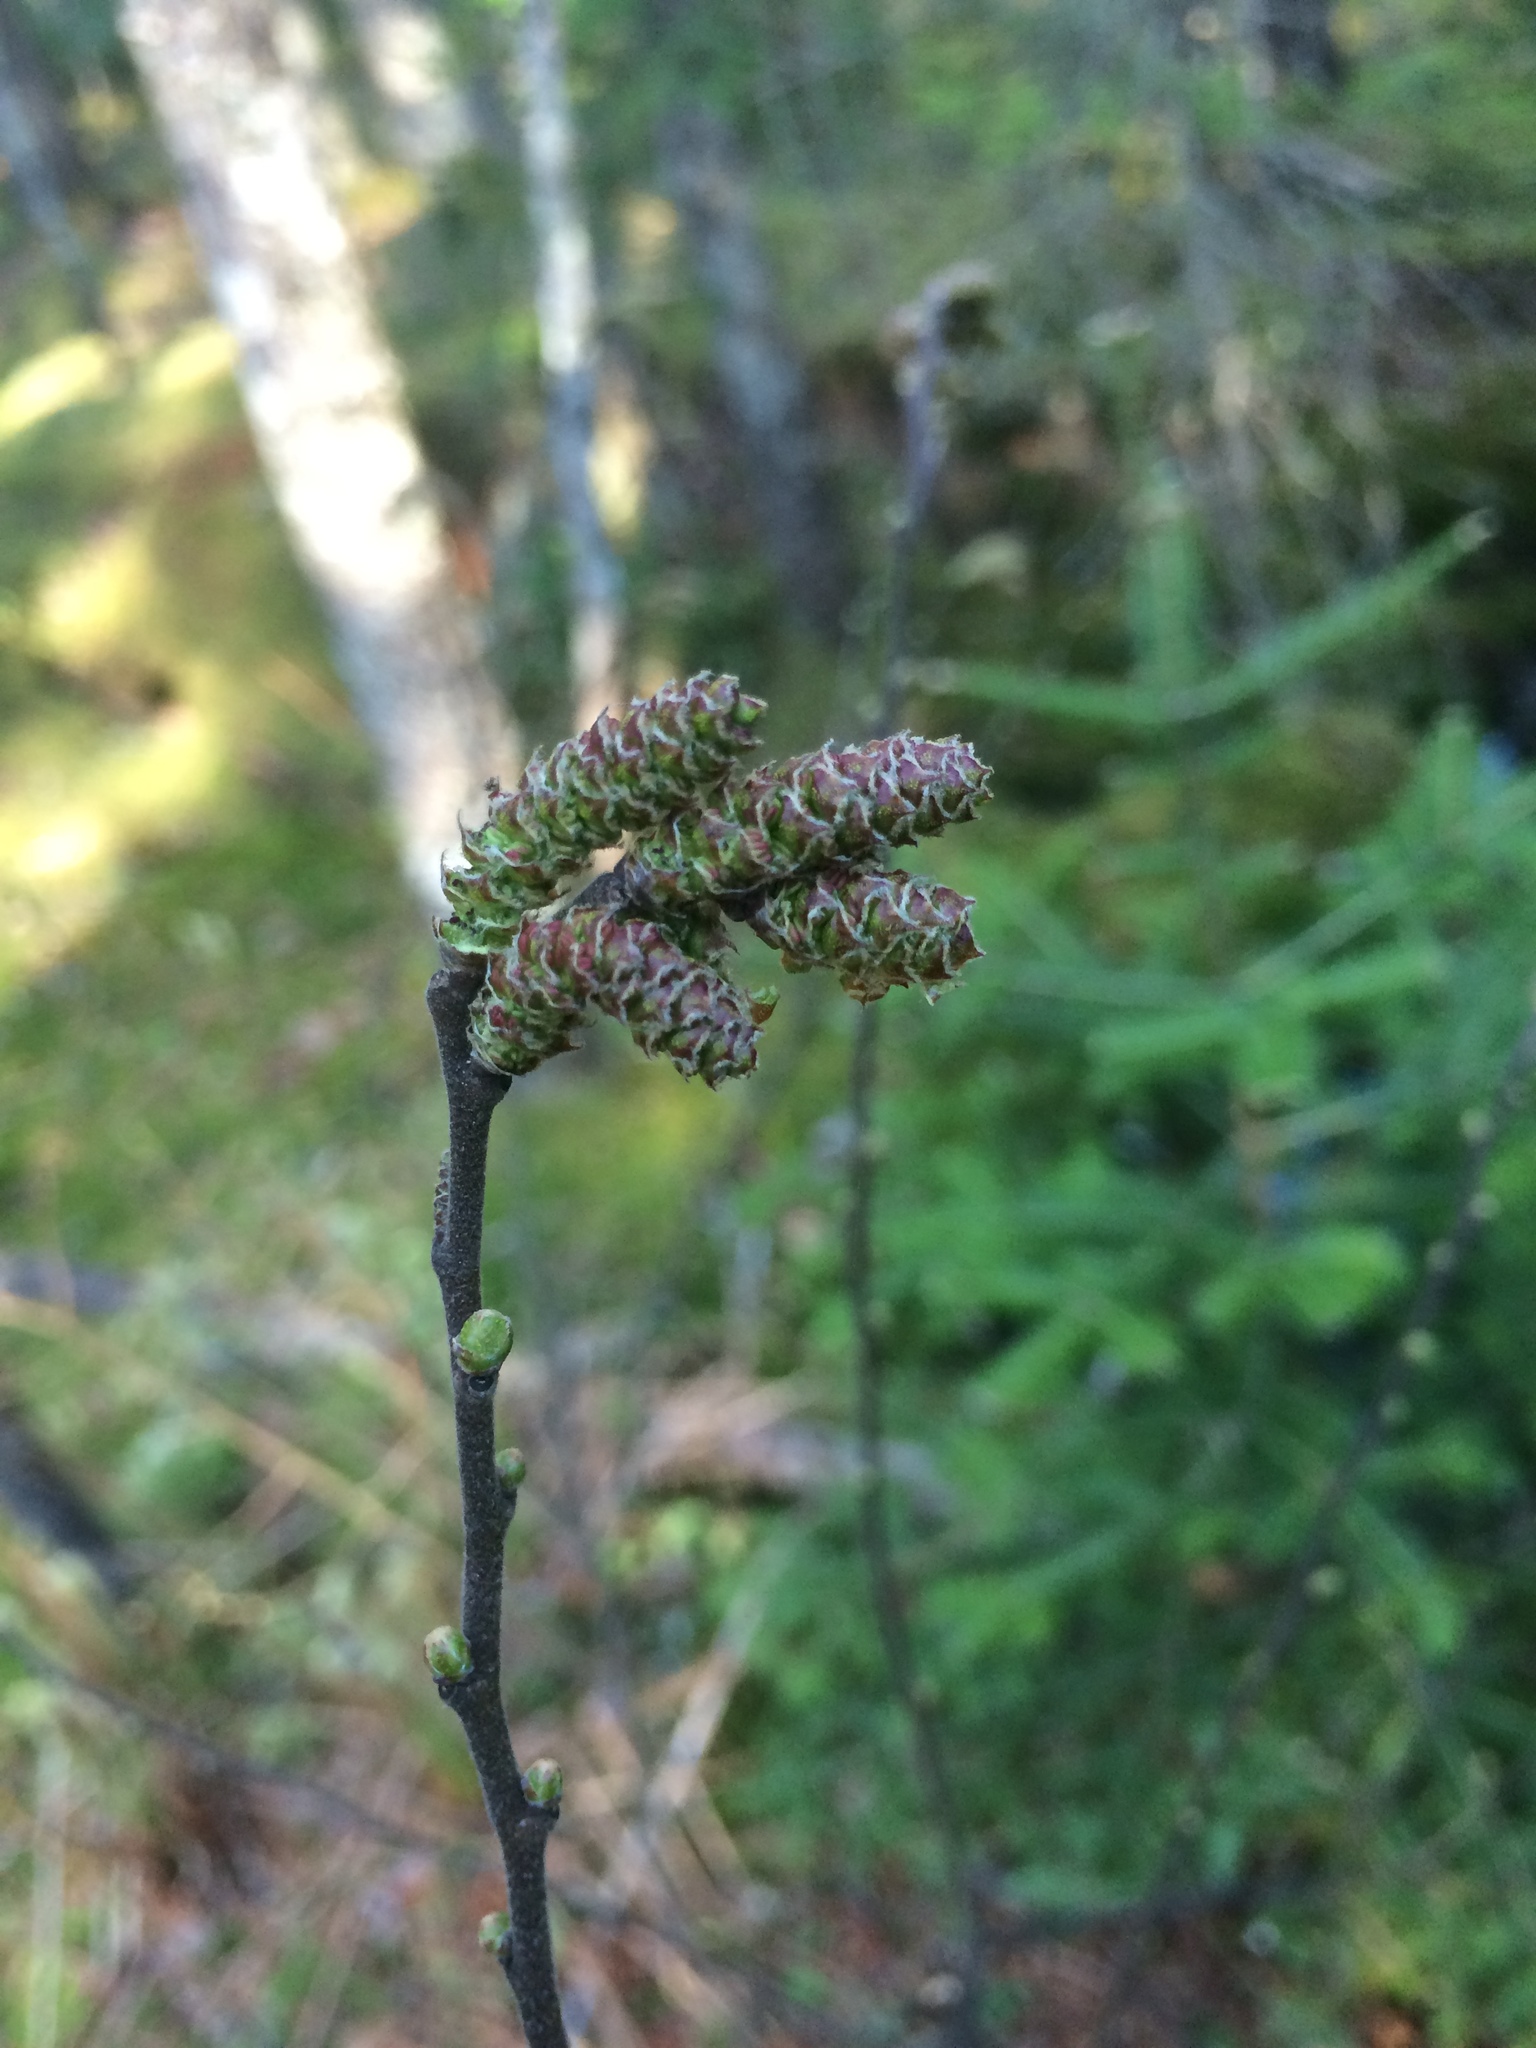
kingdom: Plantae
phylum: Tracheophyta
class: Magnoliopsida
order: Fagales
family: Myricaceae
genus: Comptonia
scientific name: Comptonia peregrina
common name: Sweet-fern
